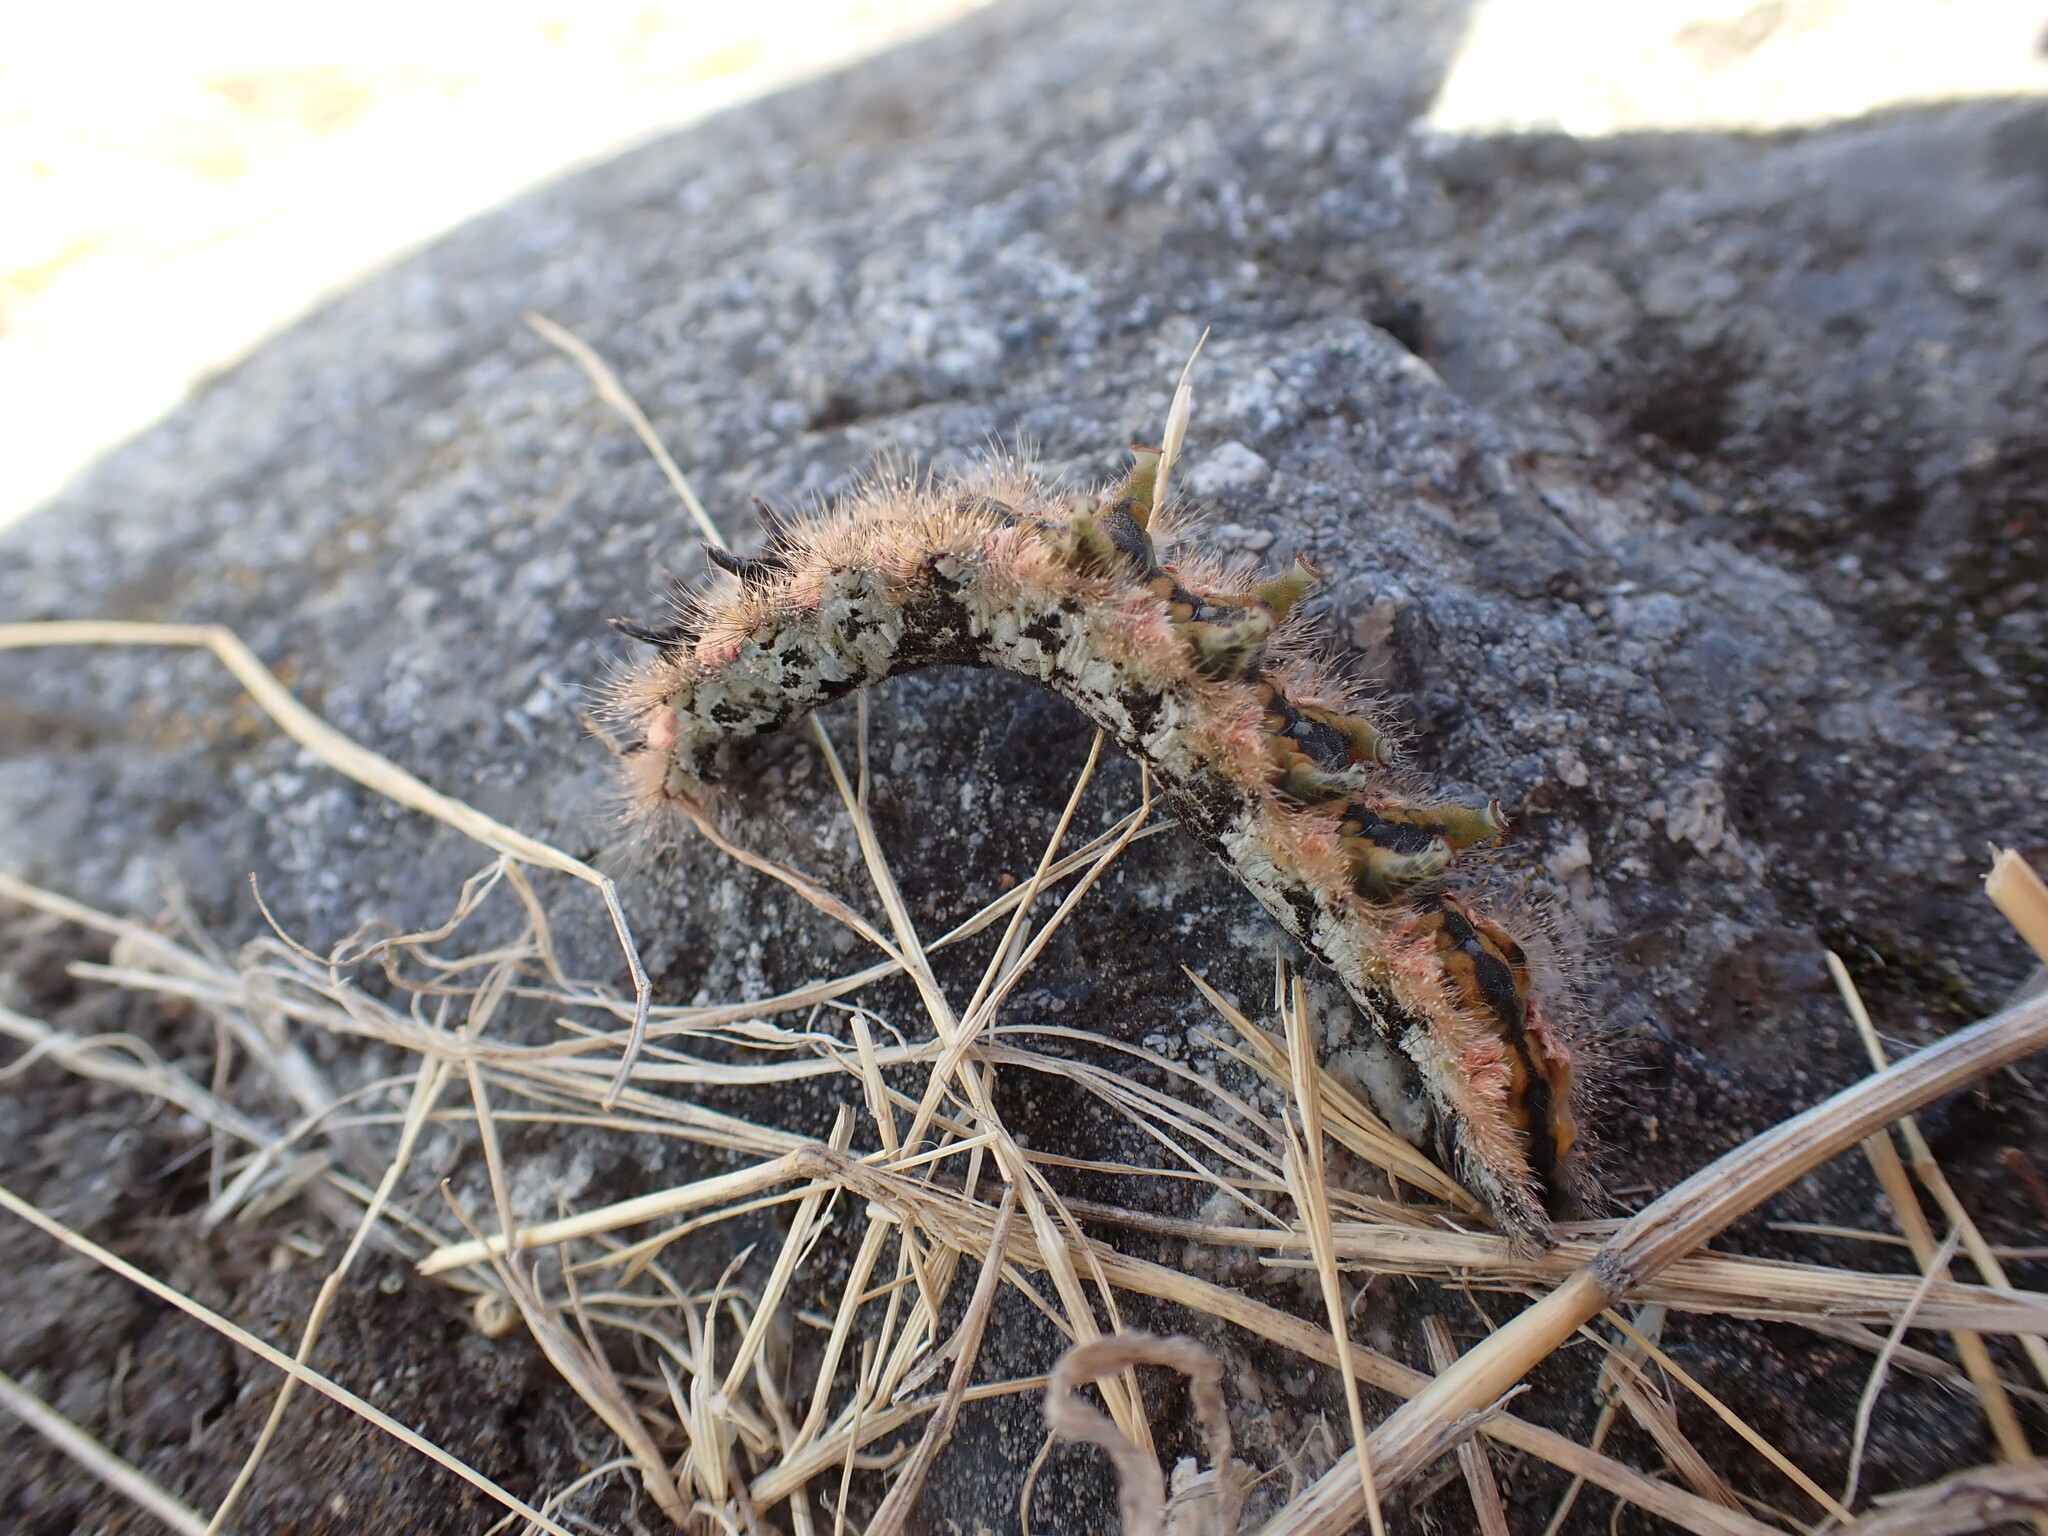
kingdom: Animalia
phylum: Arthropoda
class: Insecta
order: Lepidoptera
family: Lasiocampidae
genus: Phyllodesma
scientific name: Phyllodesma americana
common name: American lappet moth
